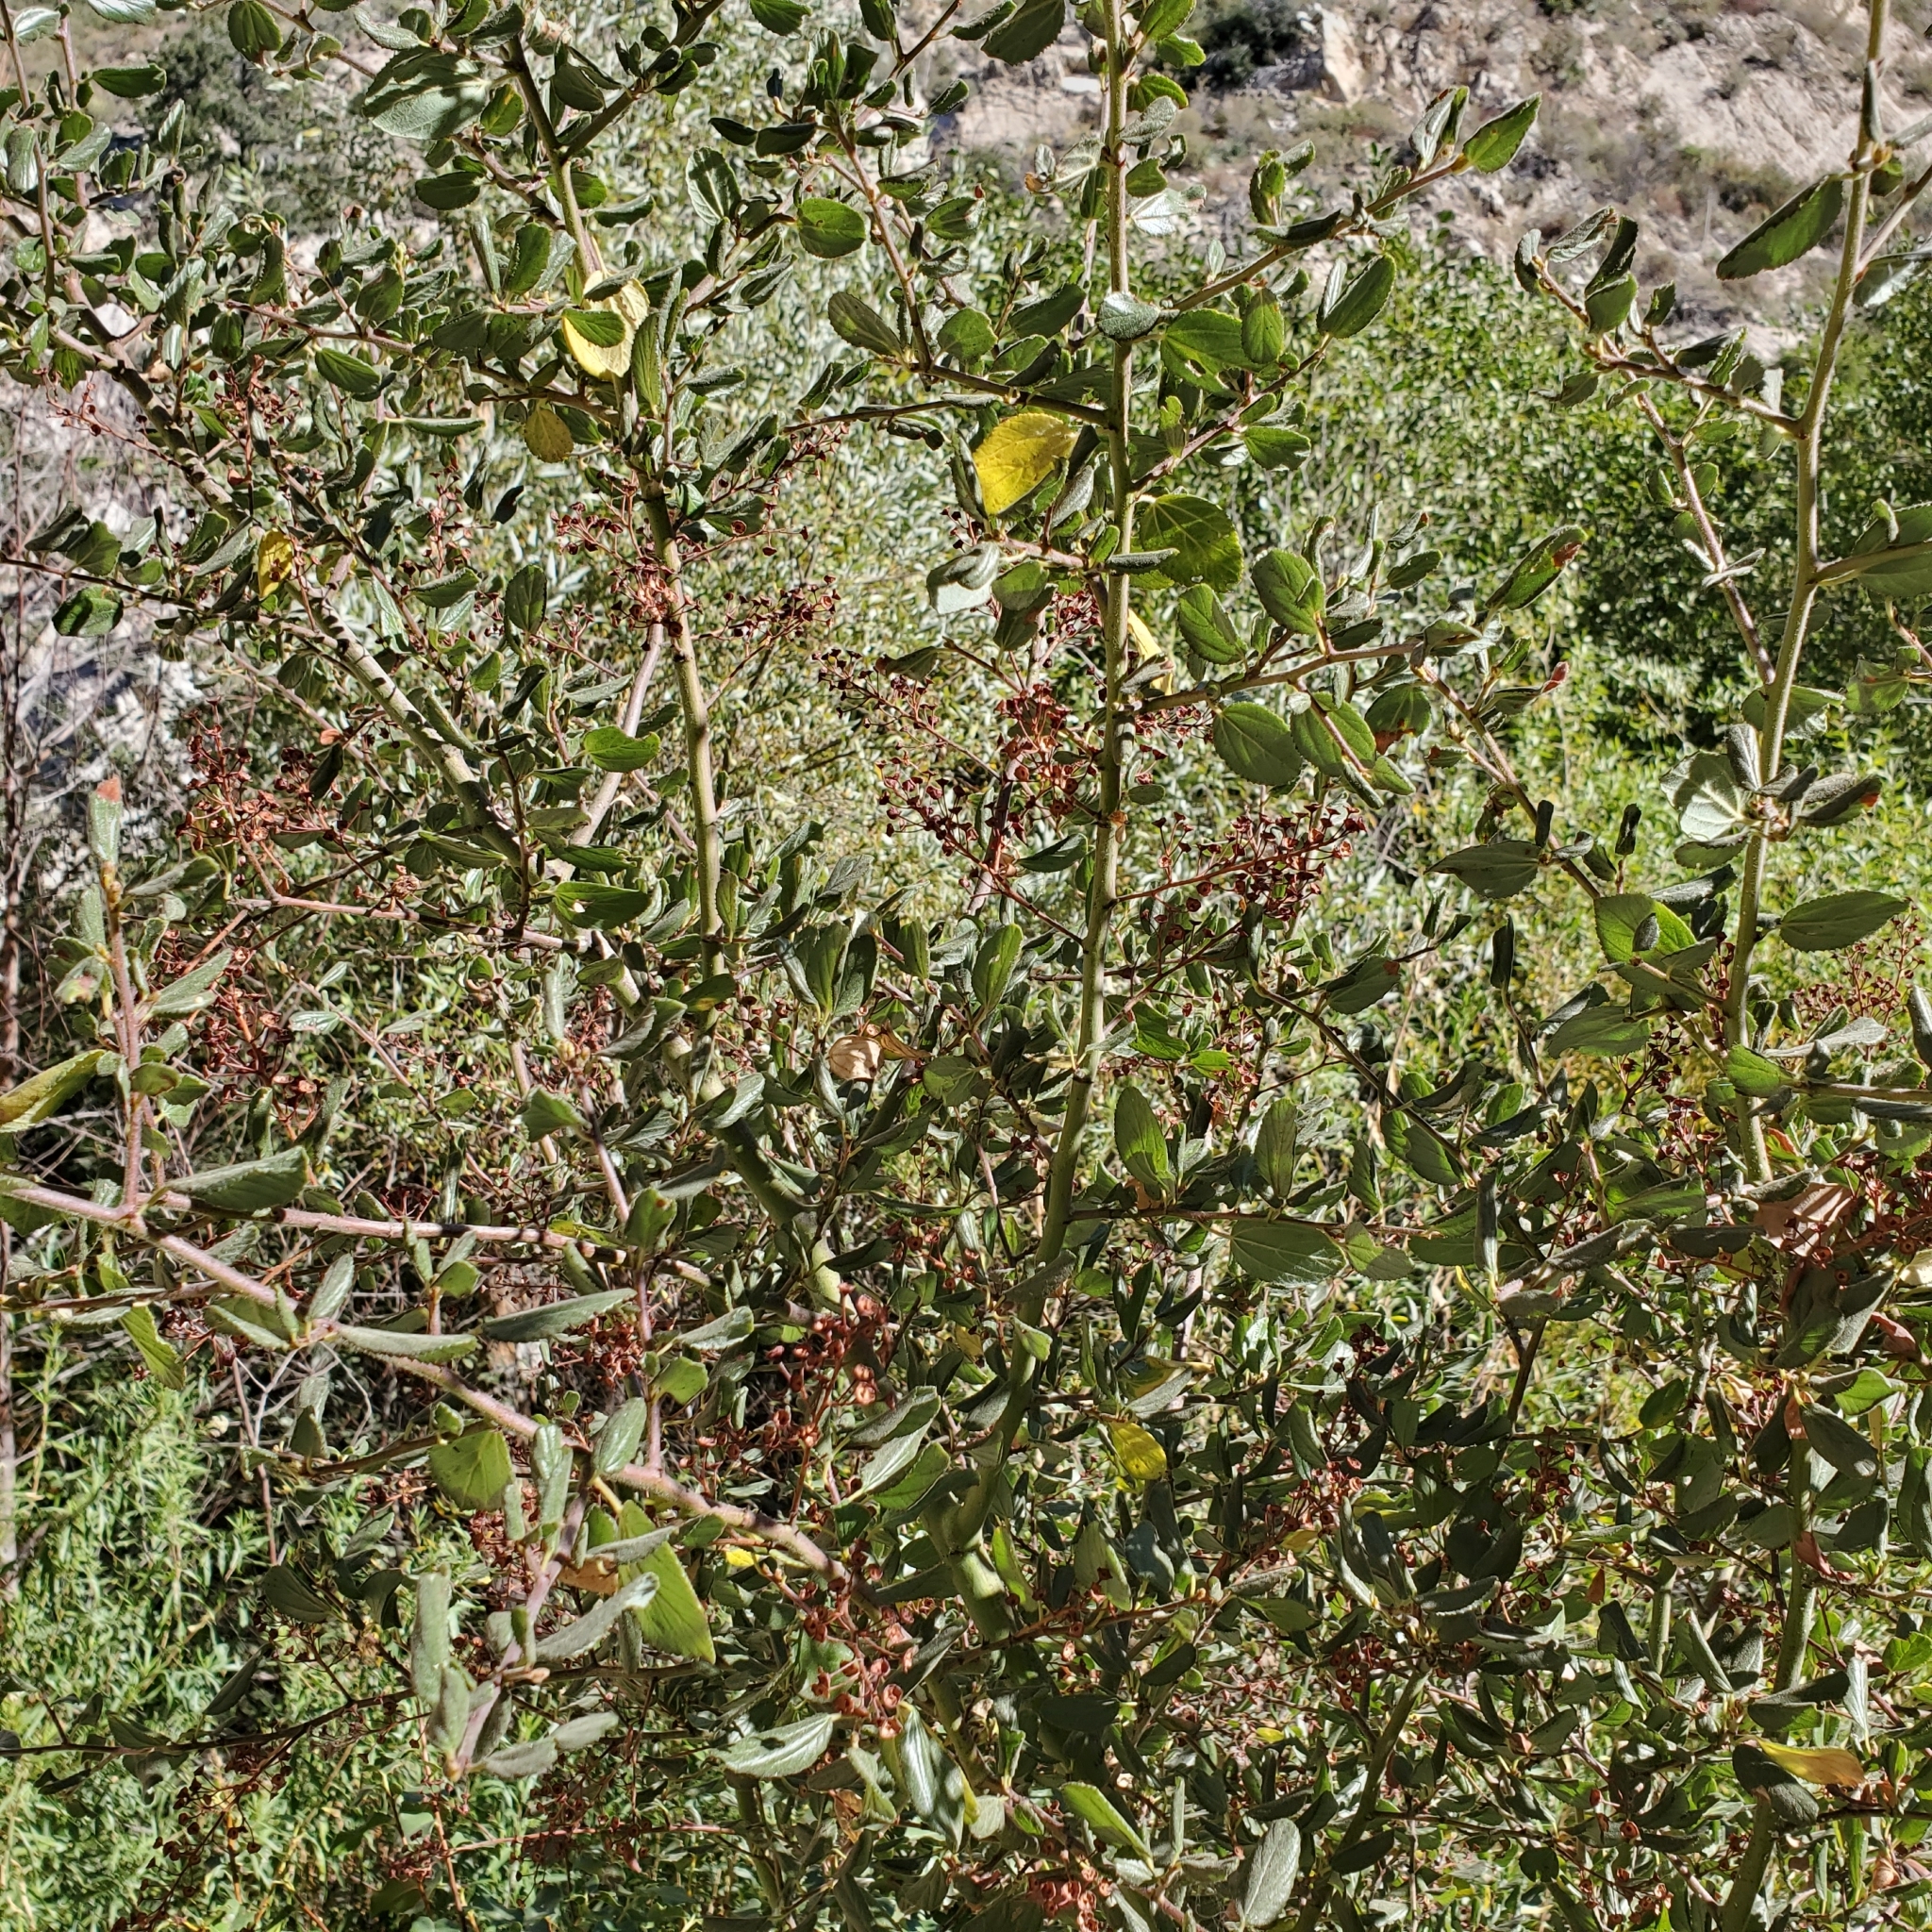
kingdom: Plantae
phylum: Tracheophyta
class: Magnoliopsida
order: Rosales
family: Rhamnaceae
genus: Ceanothus
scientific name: Ceanothus oliganthus
